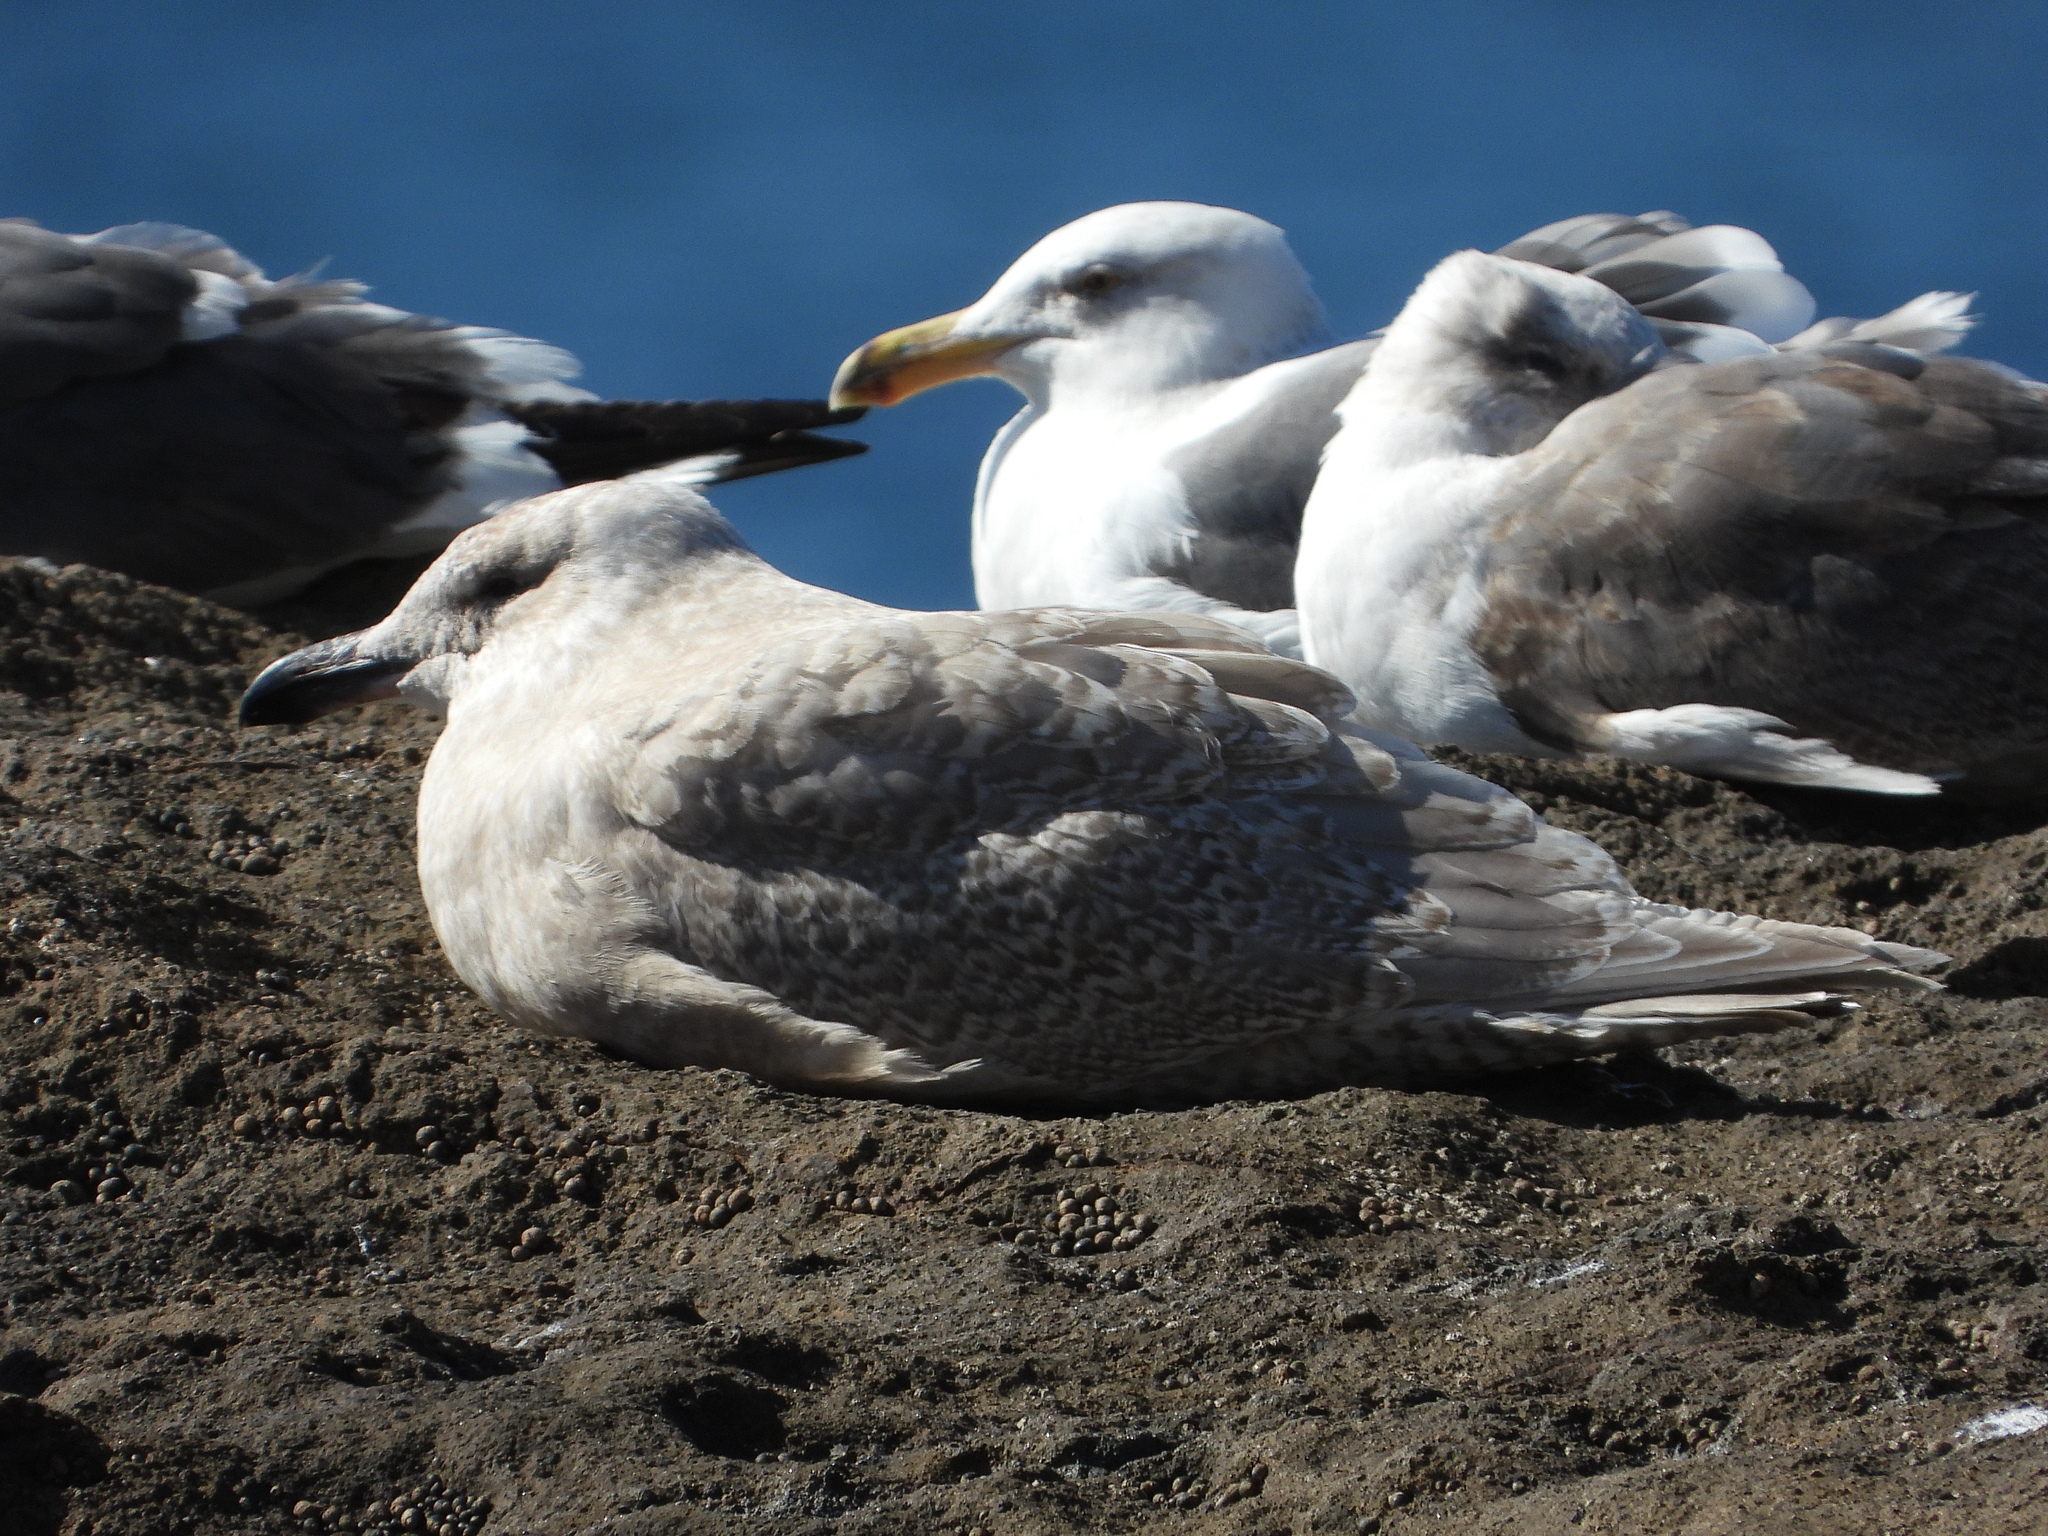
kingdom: Animalia
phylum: Chordata
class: Aves
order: Charadriiformes
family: Laridae
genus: Larus
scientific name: Larus glaucescens
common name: Glaucous-winged gull
